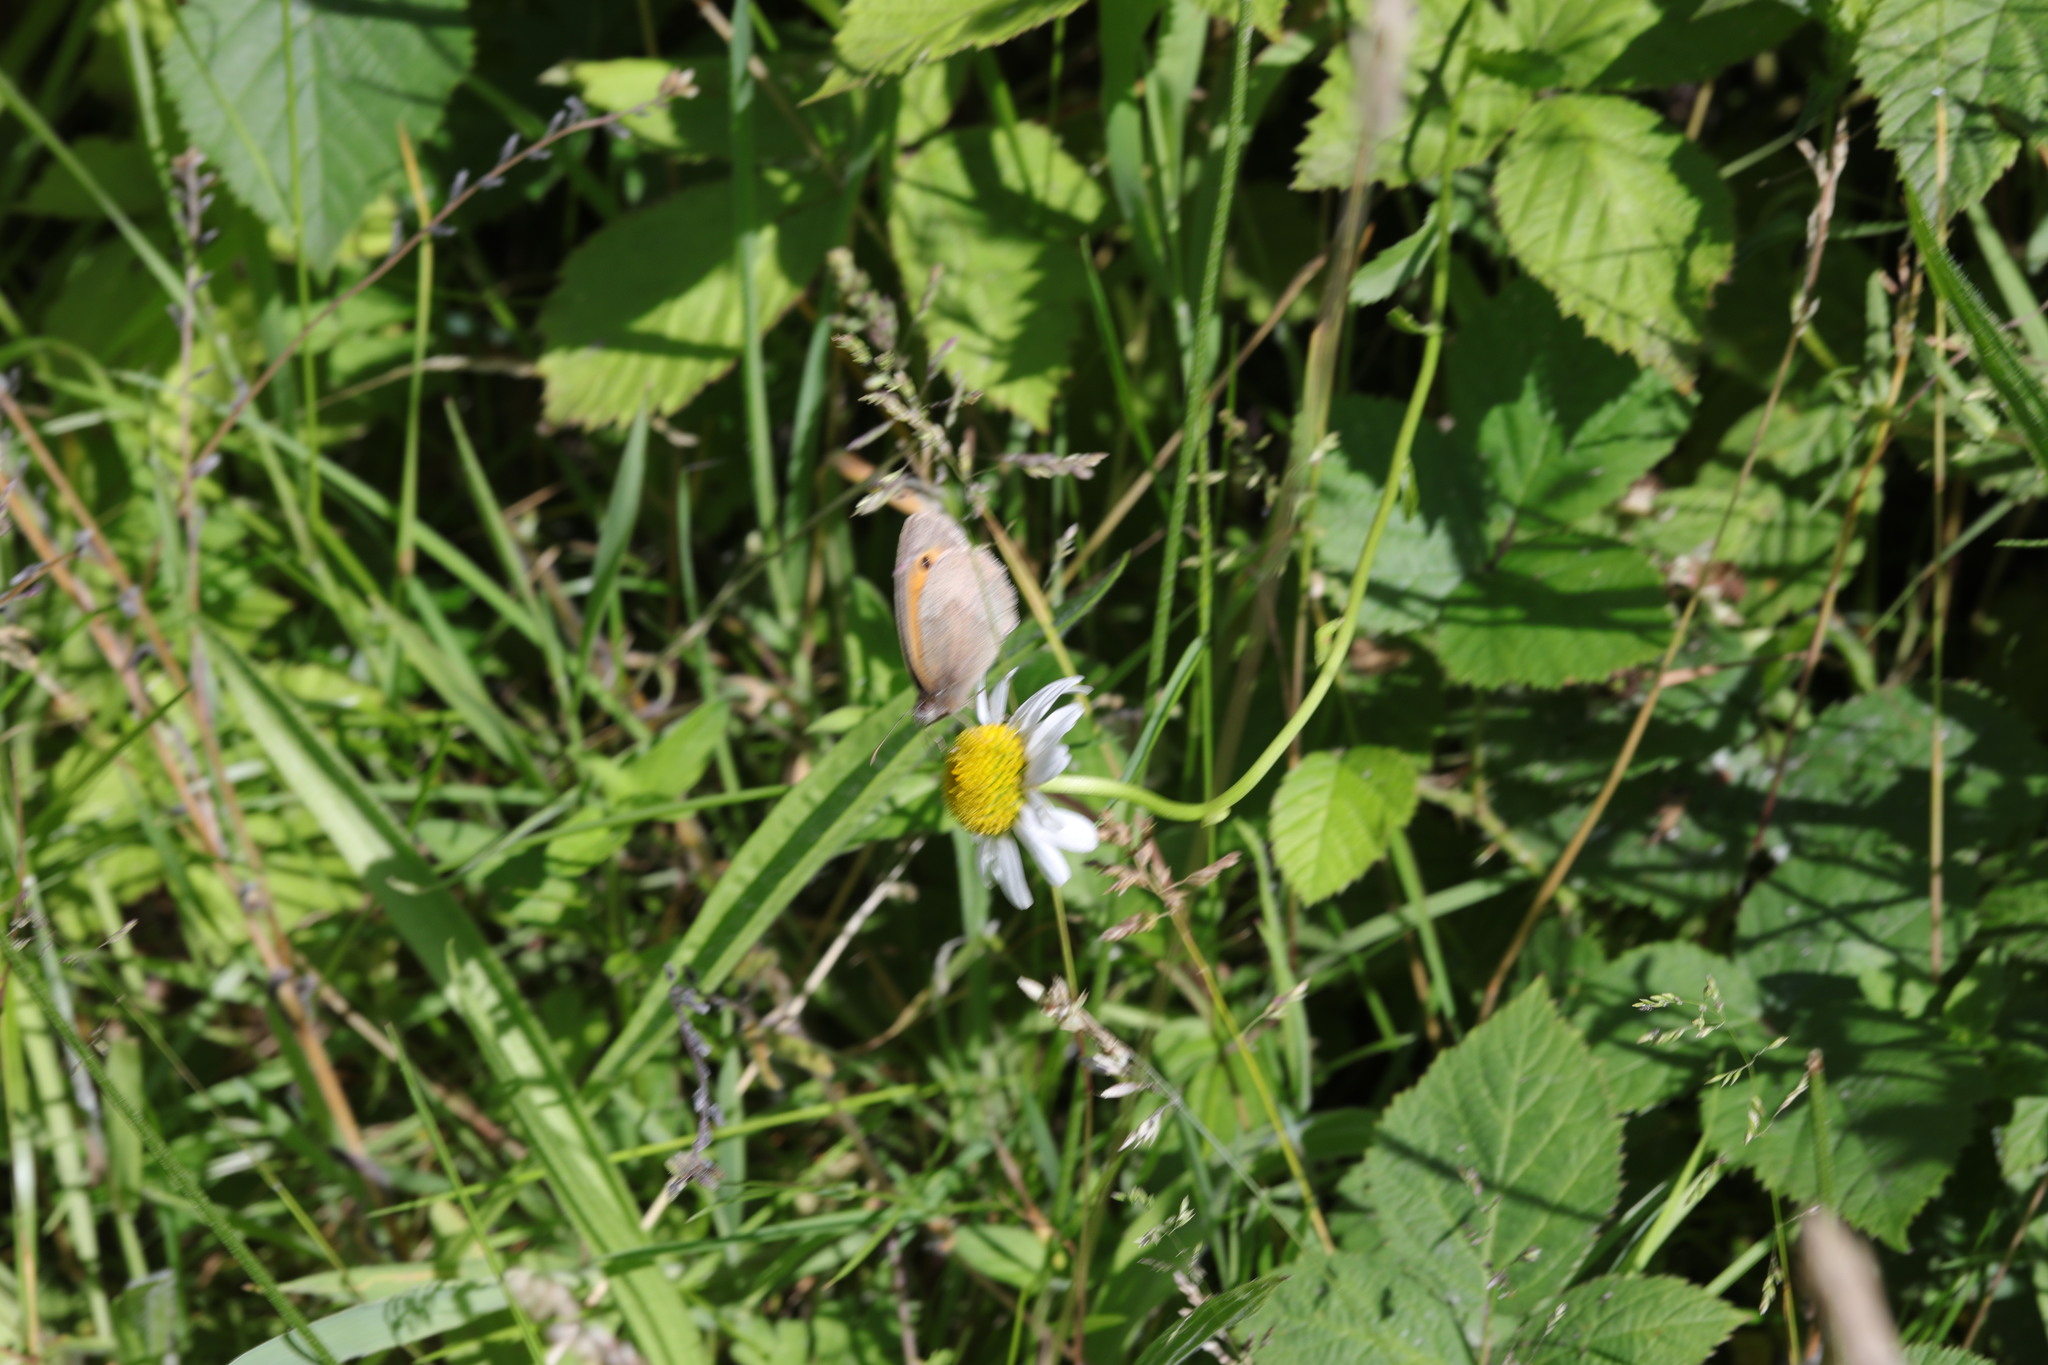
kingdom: Animalia
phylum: Arthropoda
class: Insecta
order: Lepidoptera
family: Nymphalidae
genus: Maniola
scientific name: Maniola jurtina
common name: Meadow brown
